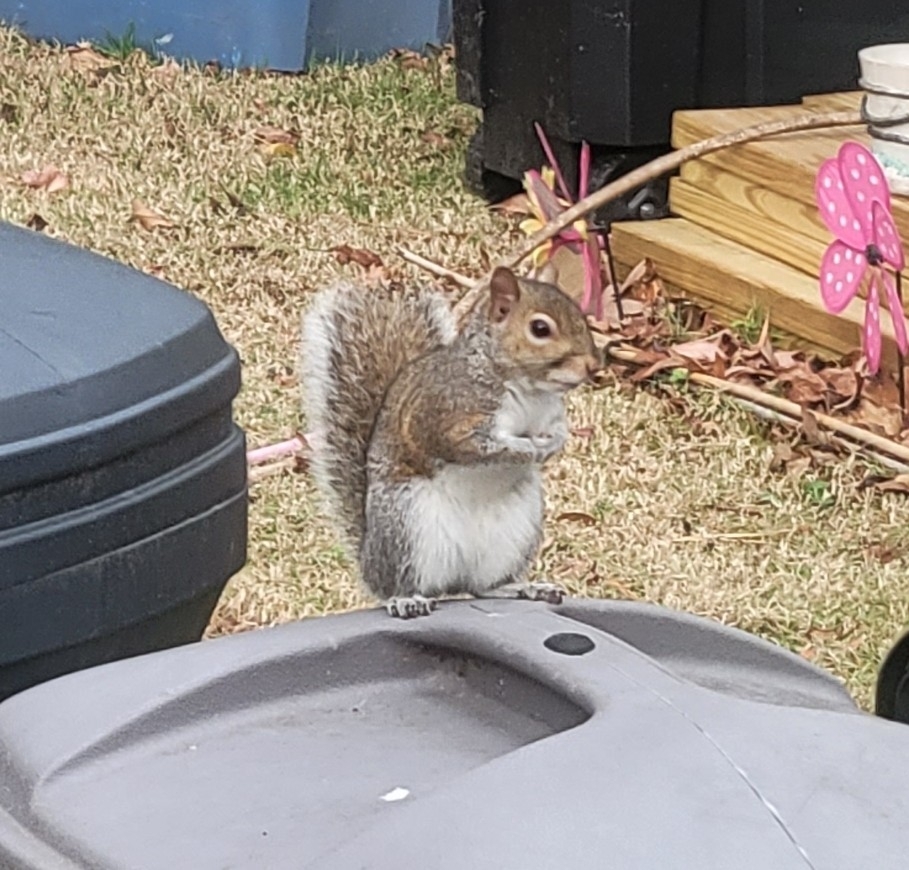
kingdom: Animalia
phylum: Chordata
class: Mammalia
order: Rodentia
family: Sciuridae
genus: Sciurus
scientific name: Sciurus carolinensis
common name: Eastern gray squirrel
